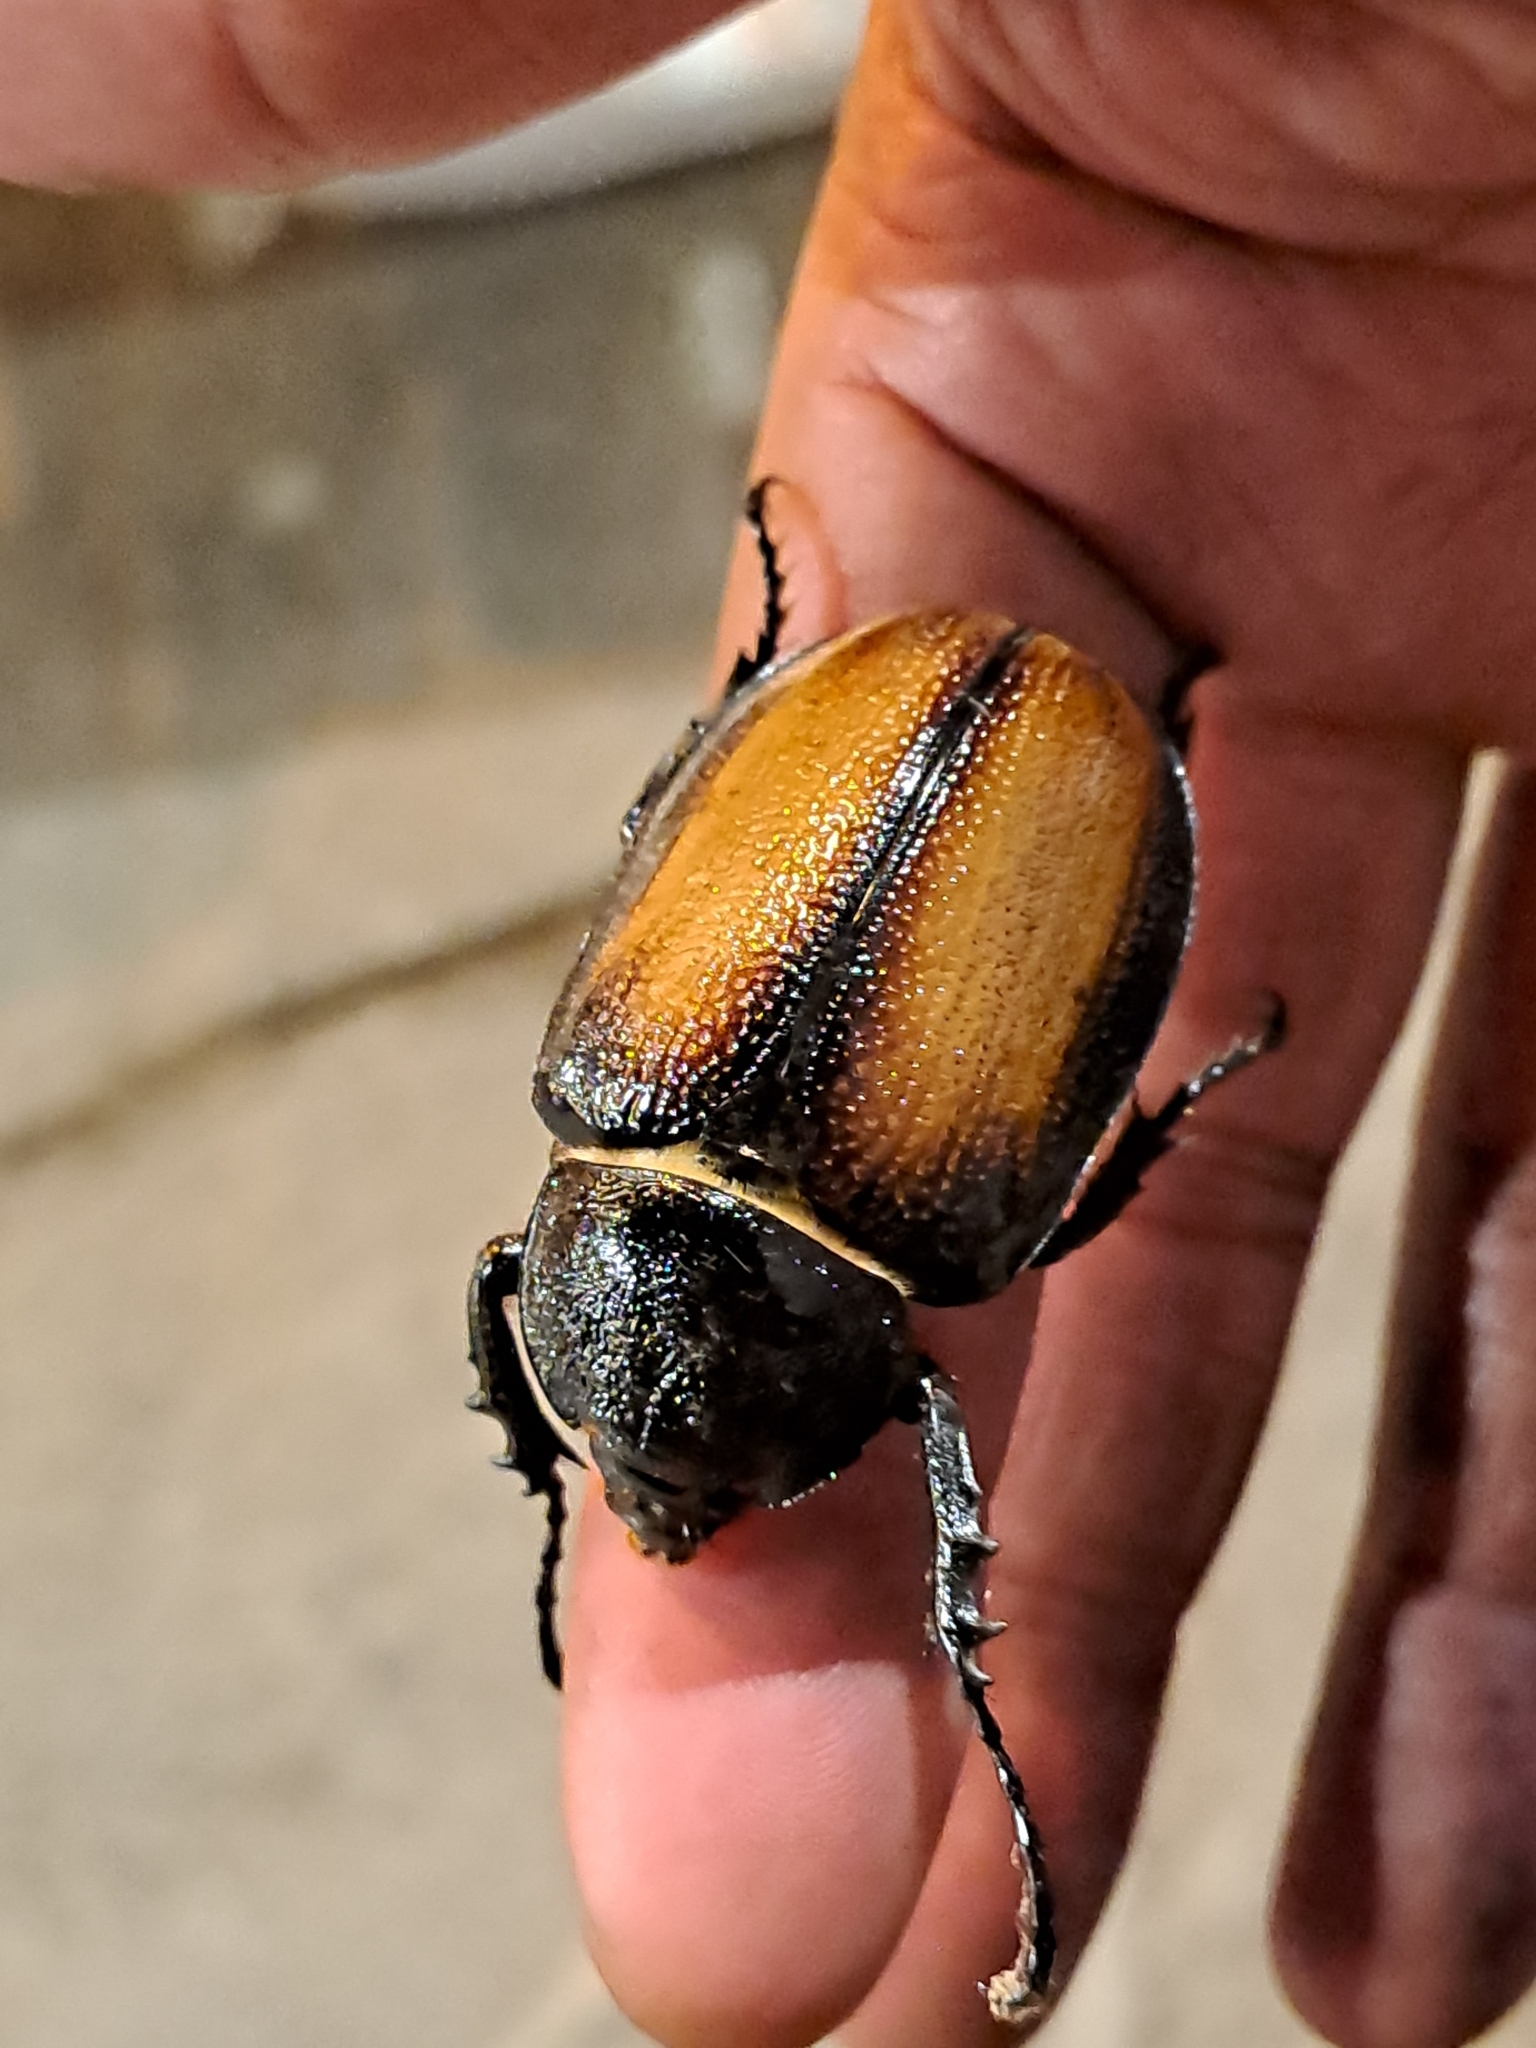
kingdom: Animalia
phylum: Arthropoda
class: Insecta
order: Coleoptera
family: Scarabaeidae
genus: Golofa
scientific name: Golofa aegeon
